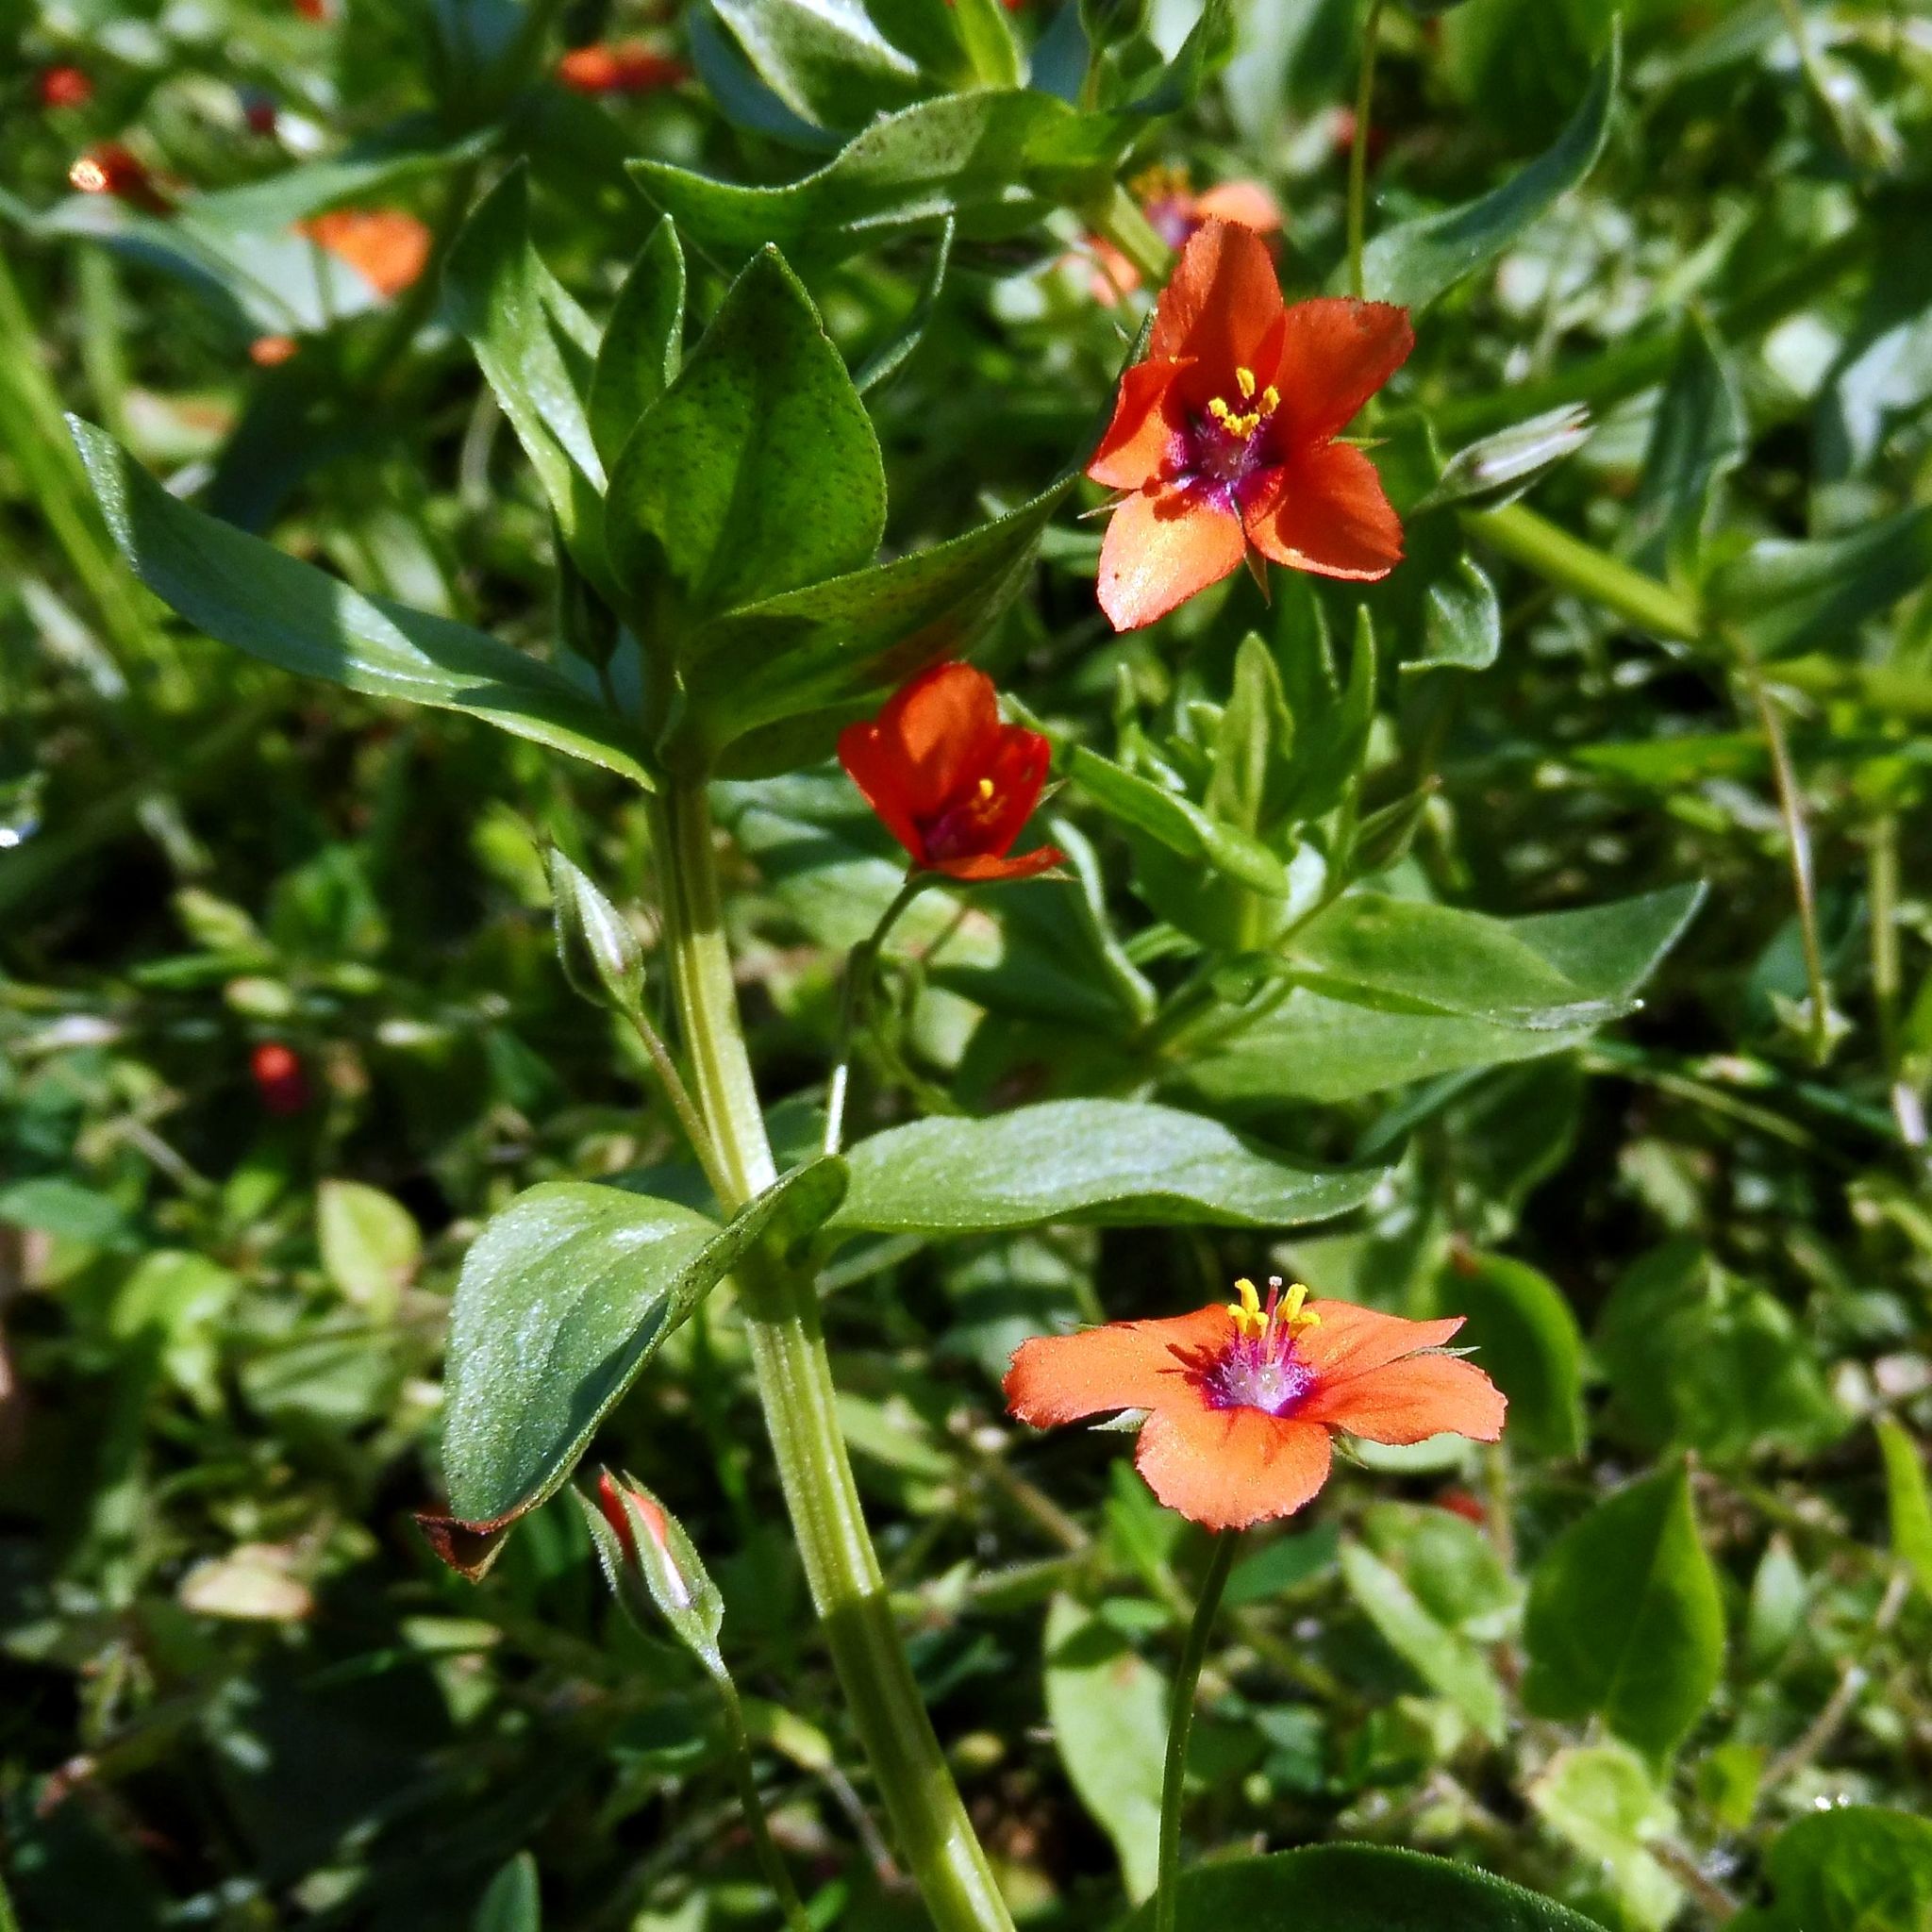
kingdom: Plantae
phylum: Tracheophyta
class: Magnoliopsida
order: Ericales
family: Primulaceae
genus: Lysimachia
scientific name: Lysimachia arvensis
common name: Scarlet pimpernel
